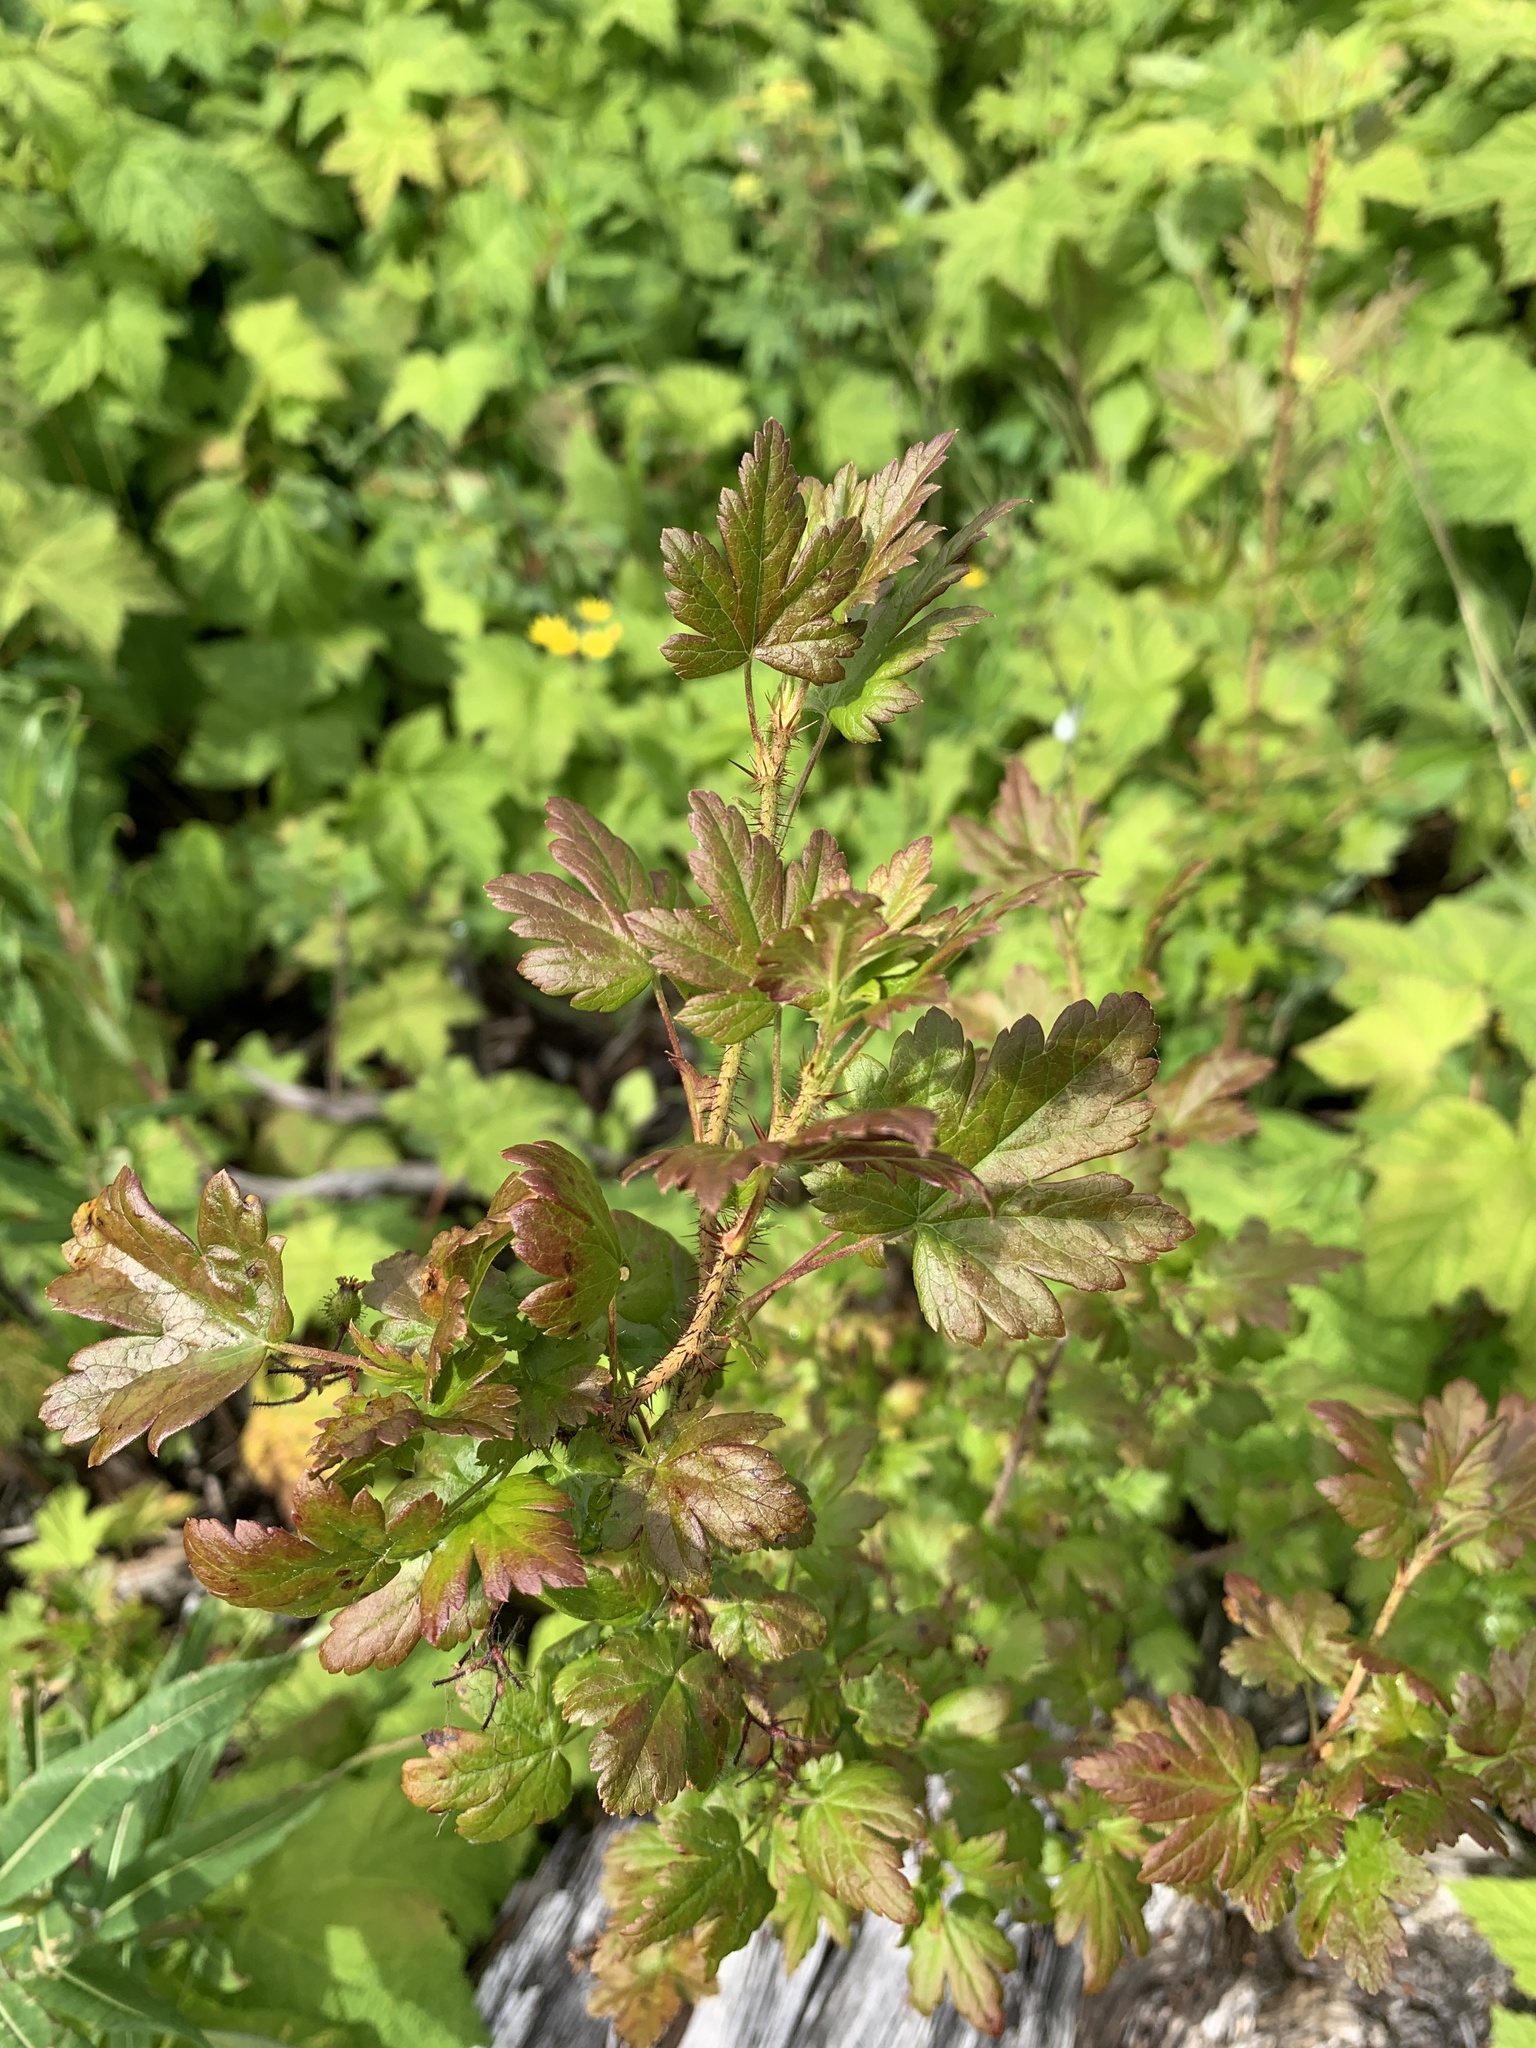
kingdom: Plantae
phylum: Tracheophyta
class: Magnoliopsida
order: Saxifragales
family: Grossulariaceae
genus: Ribes
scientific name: Ribes lacustre
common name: Black gooseberry
